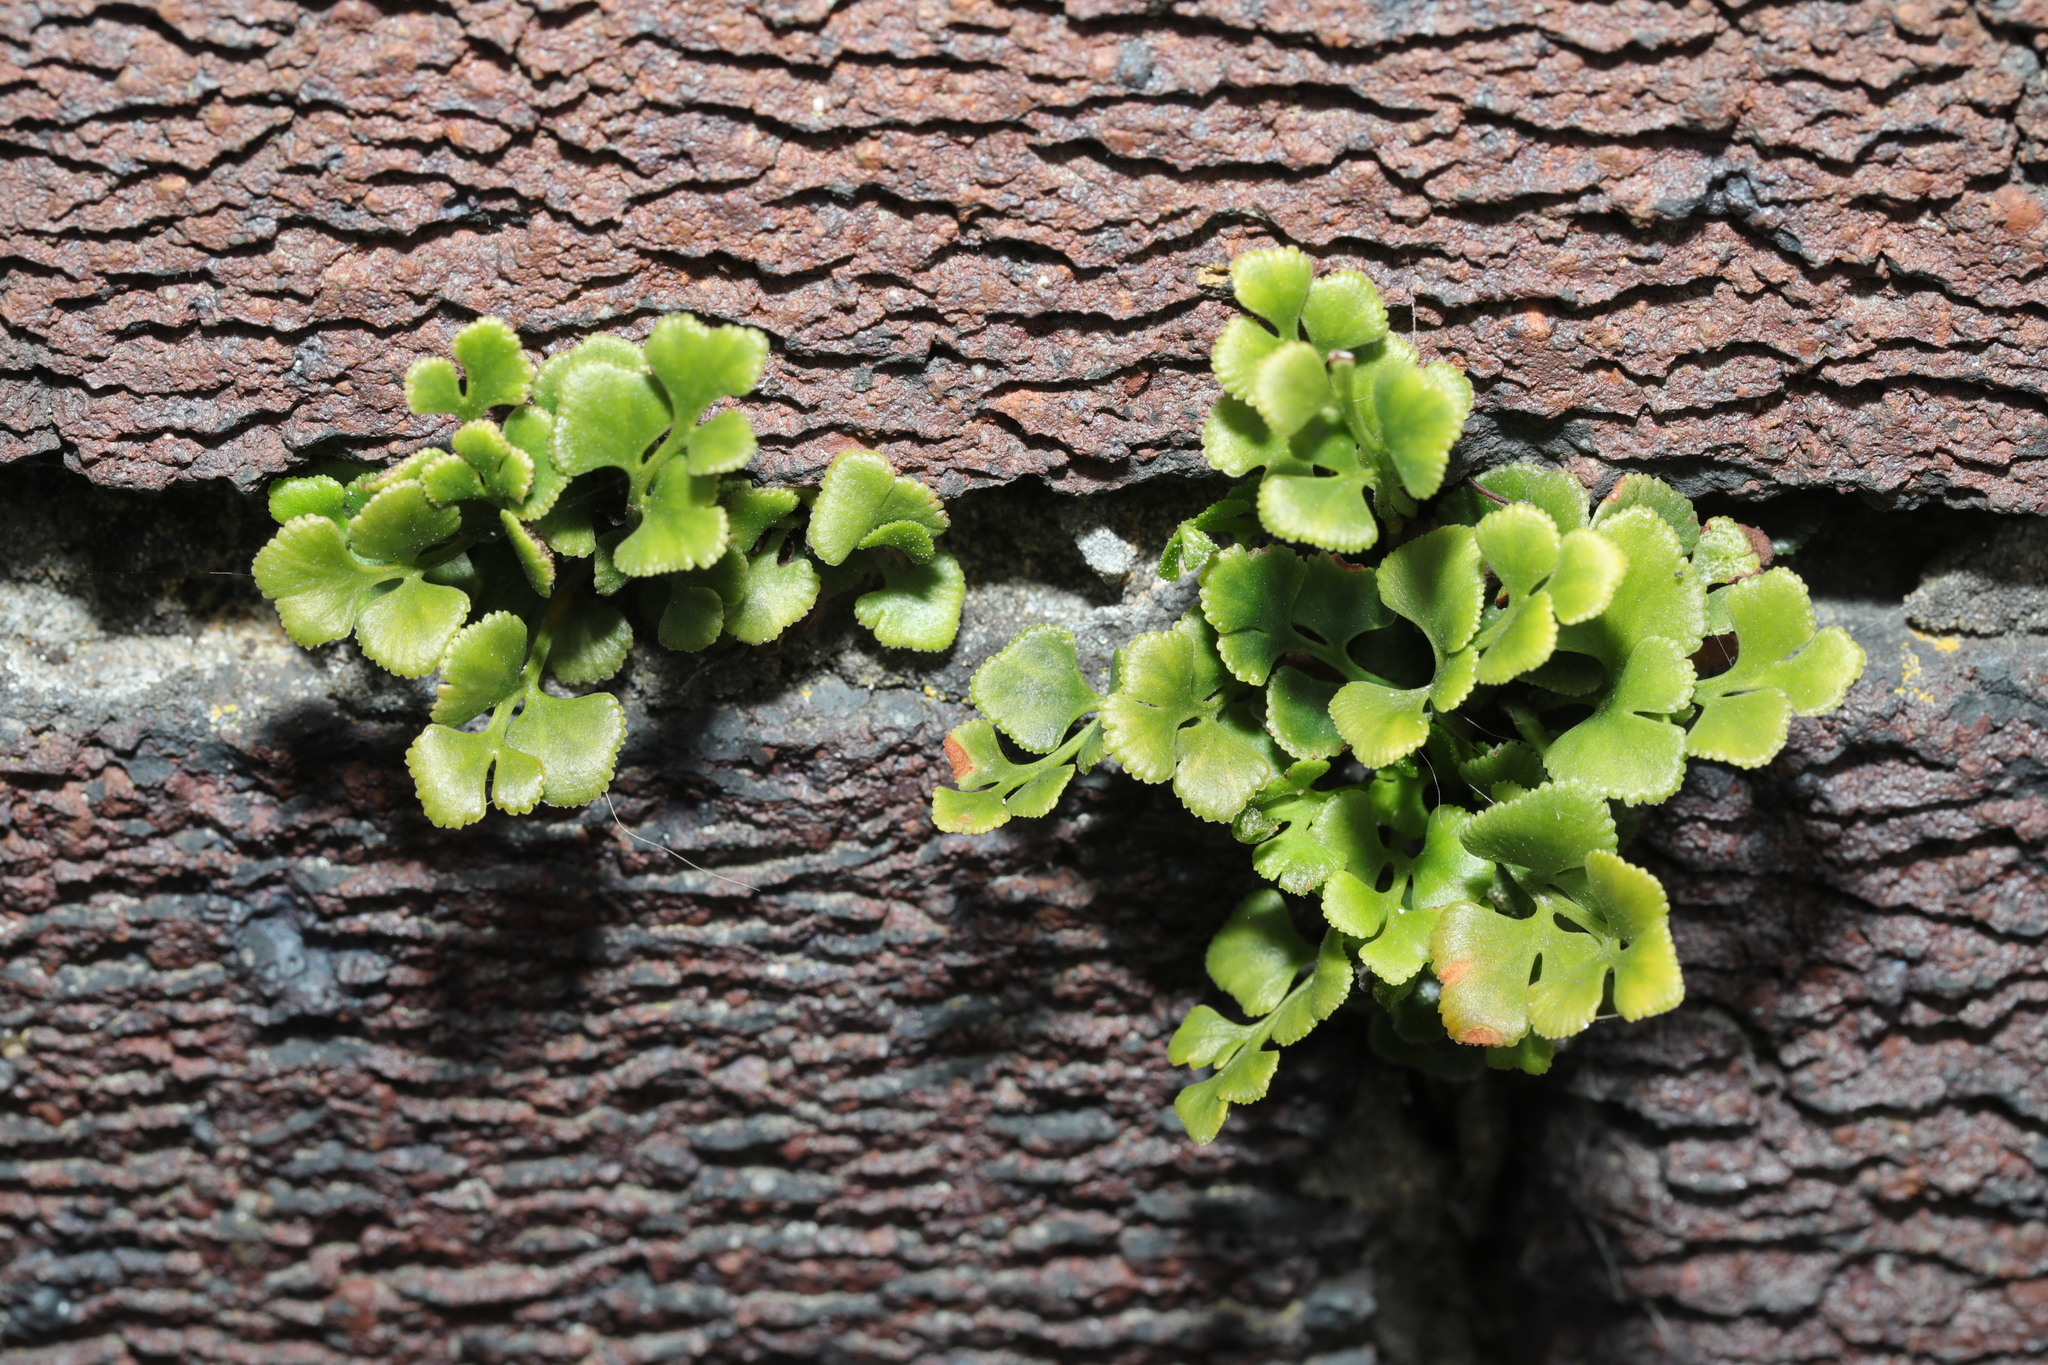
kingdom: Plantae
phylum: Tracheophyta
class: Polypodiopsida
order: Polypodiales
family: Aspleniaceae
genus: Asplenium
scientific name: Asplenium ruta-muraria
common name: Wall-rue
